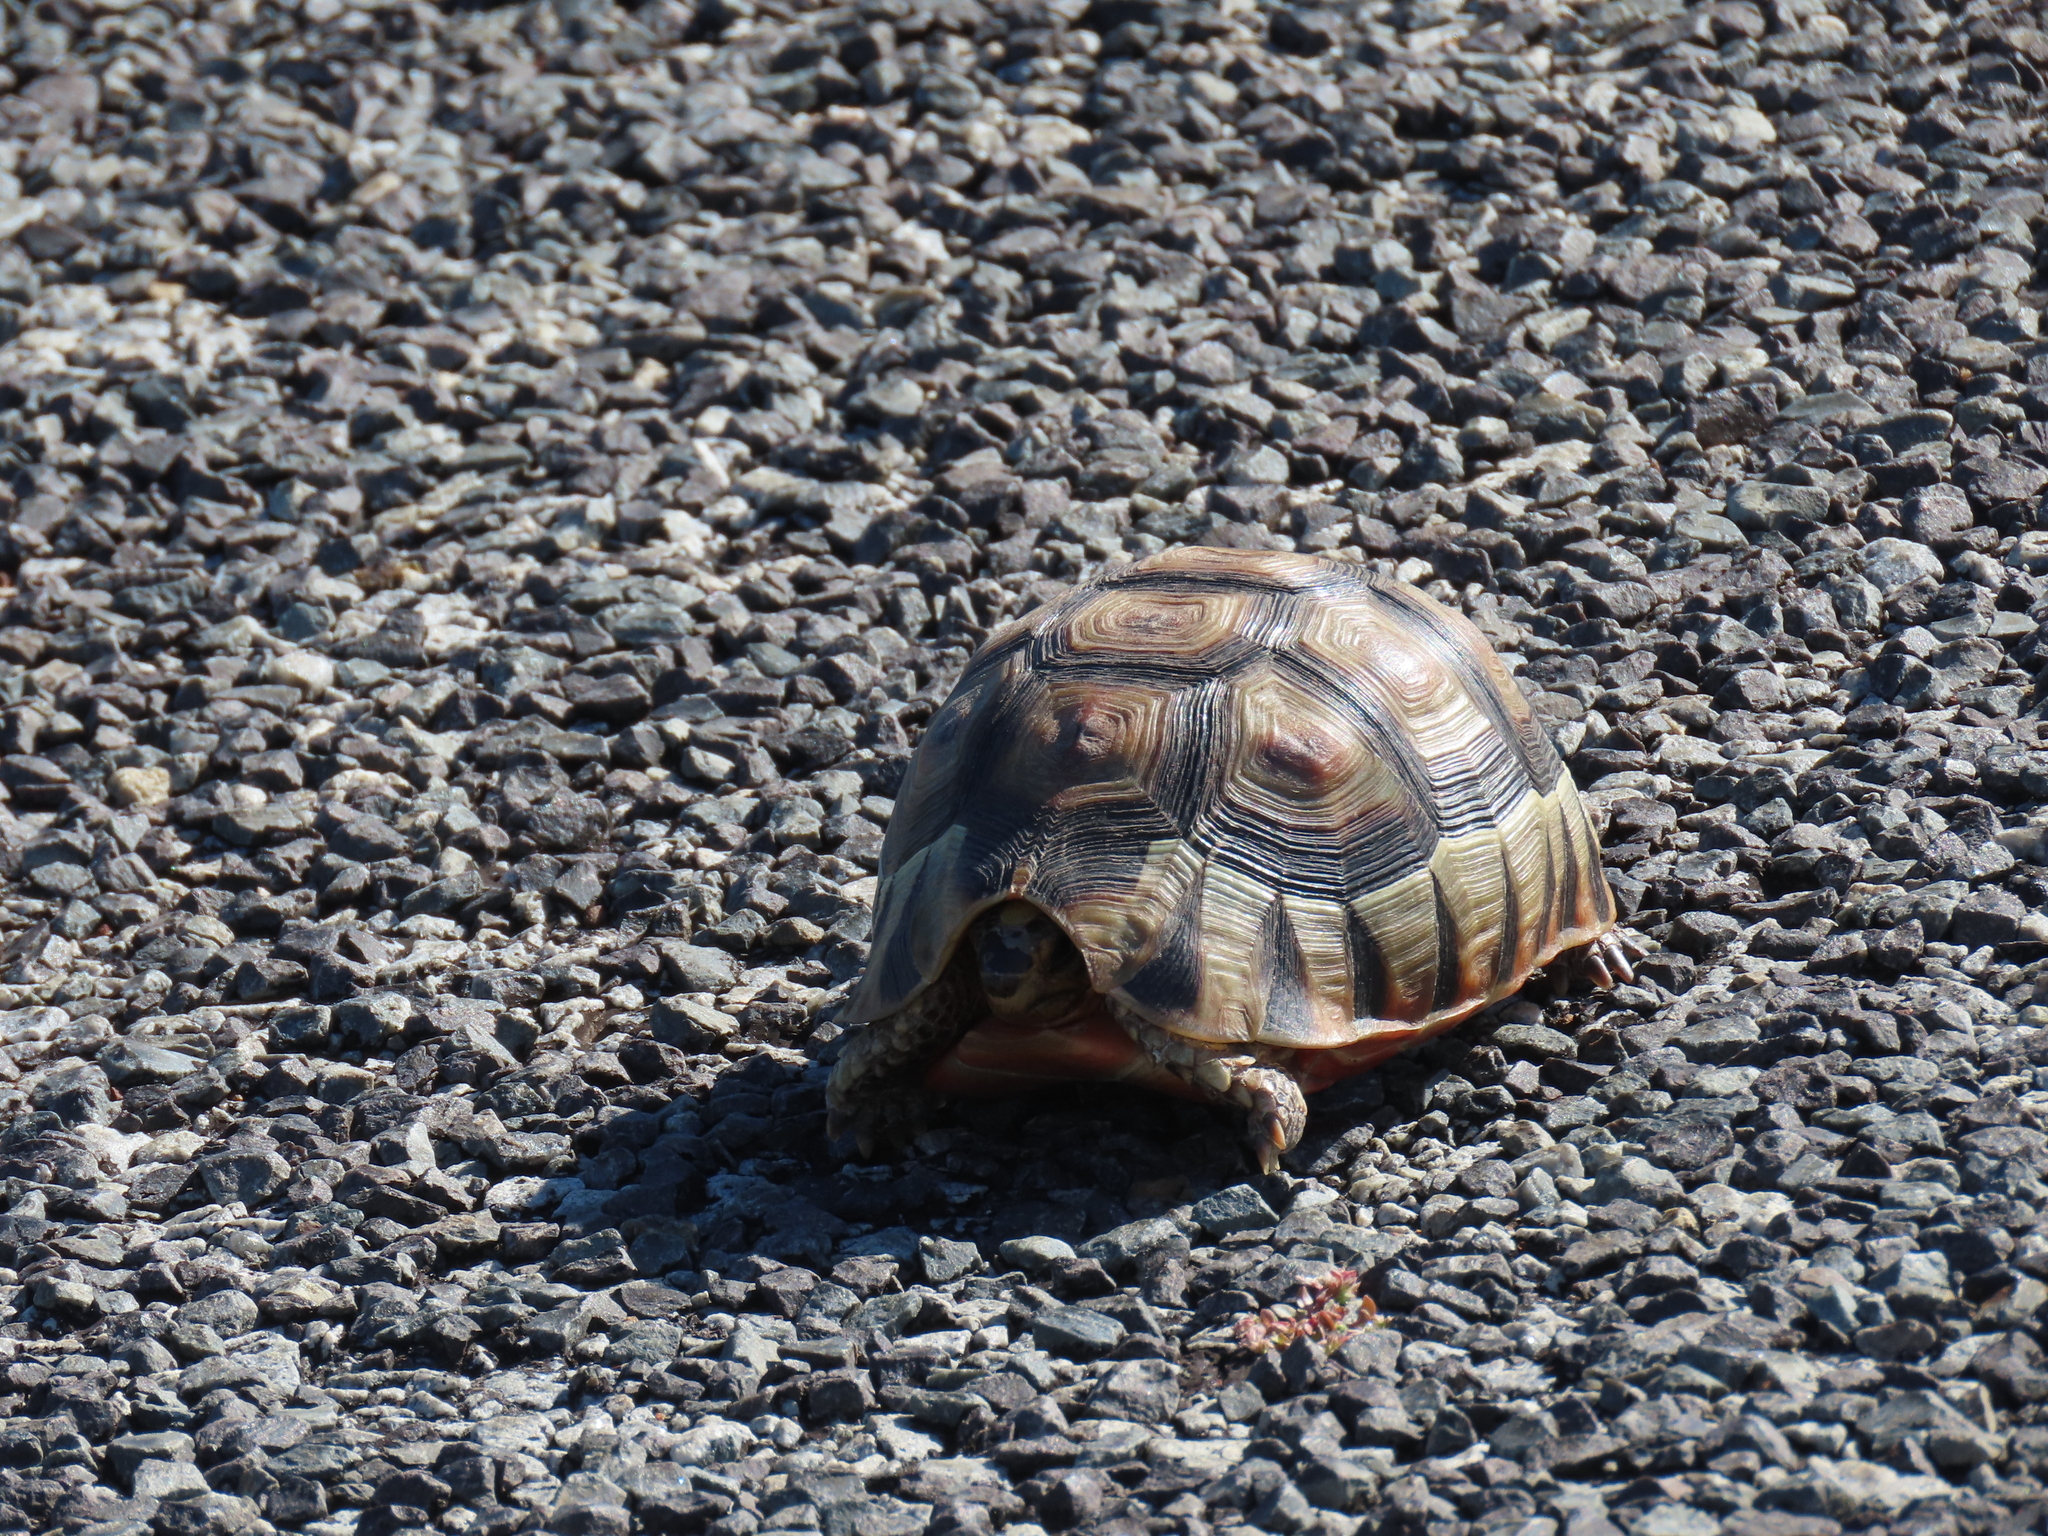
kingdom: Animalia
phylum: Chordata
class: Testudines
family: Testudinidae
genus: Chersina
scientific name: Chersina angulata
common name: South african bowsprit tortoise
